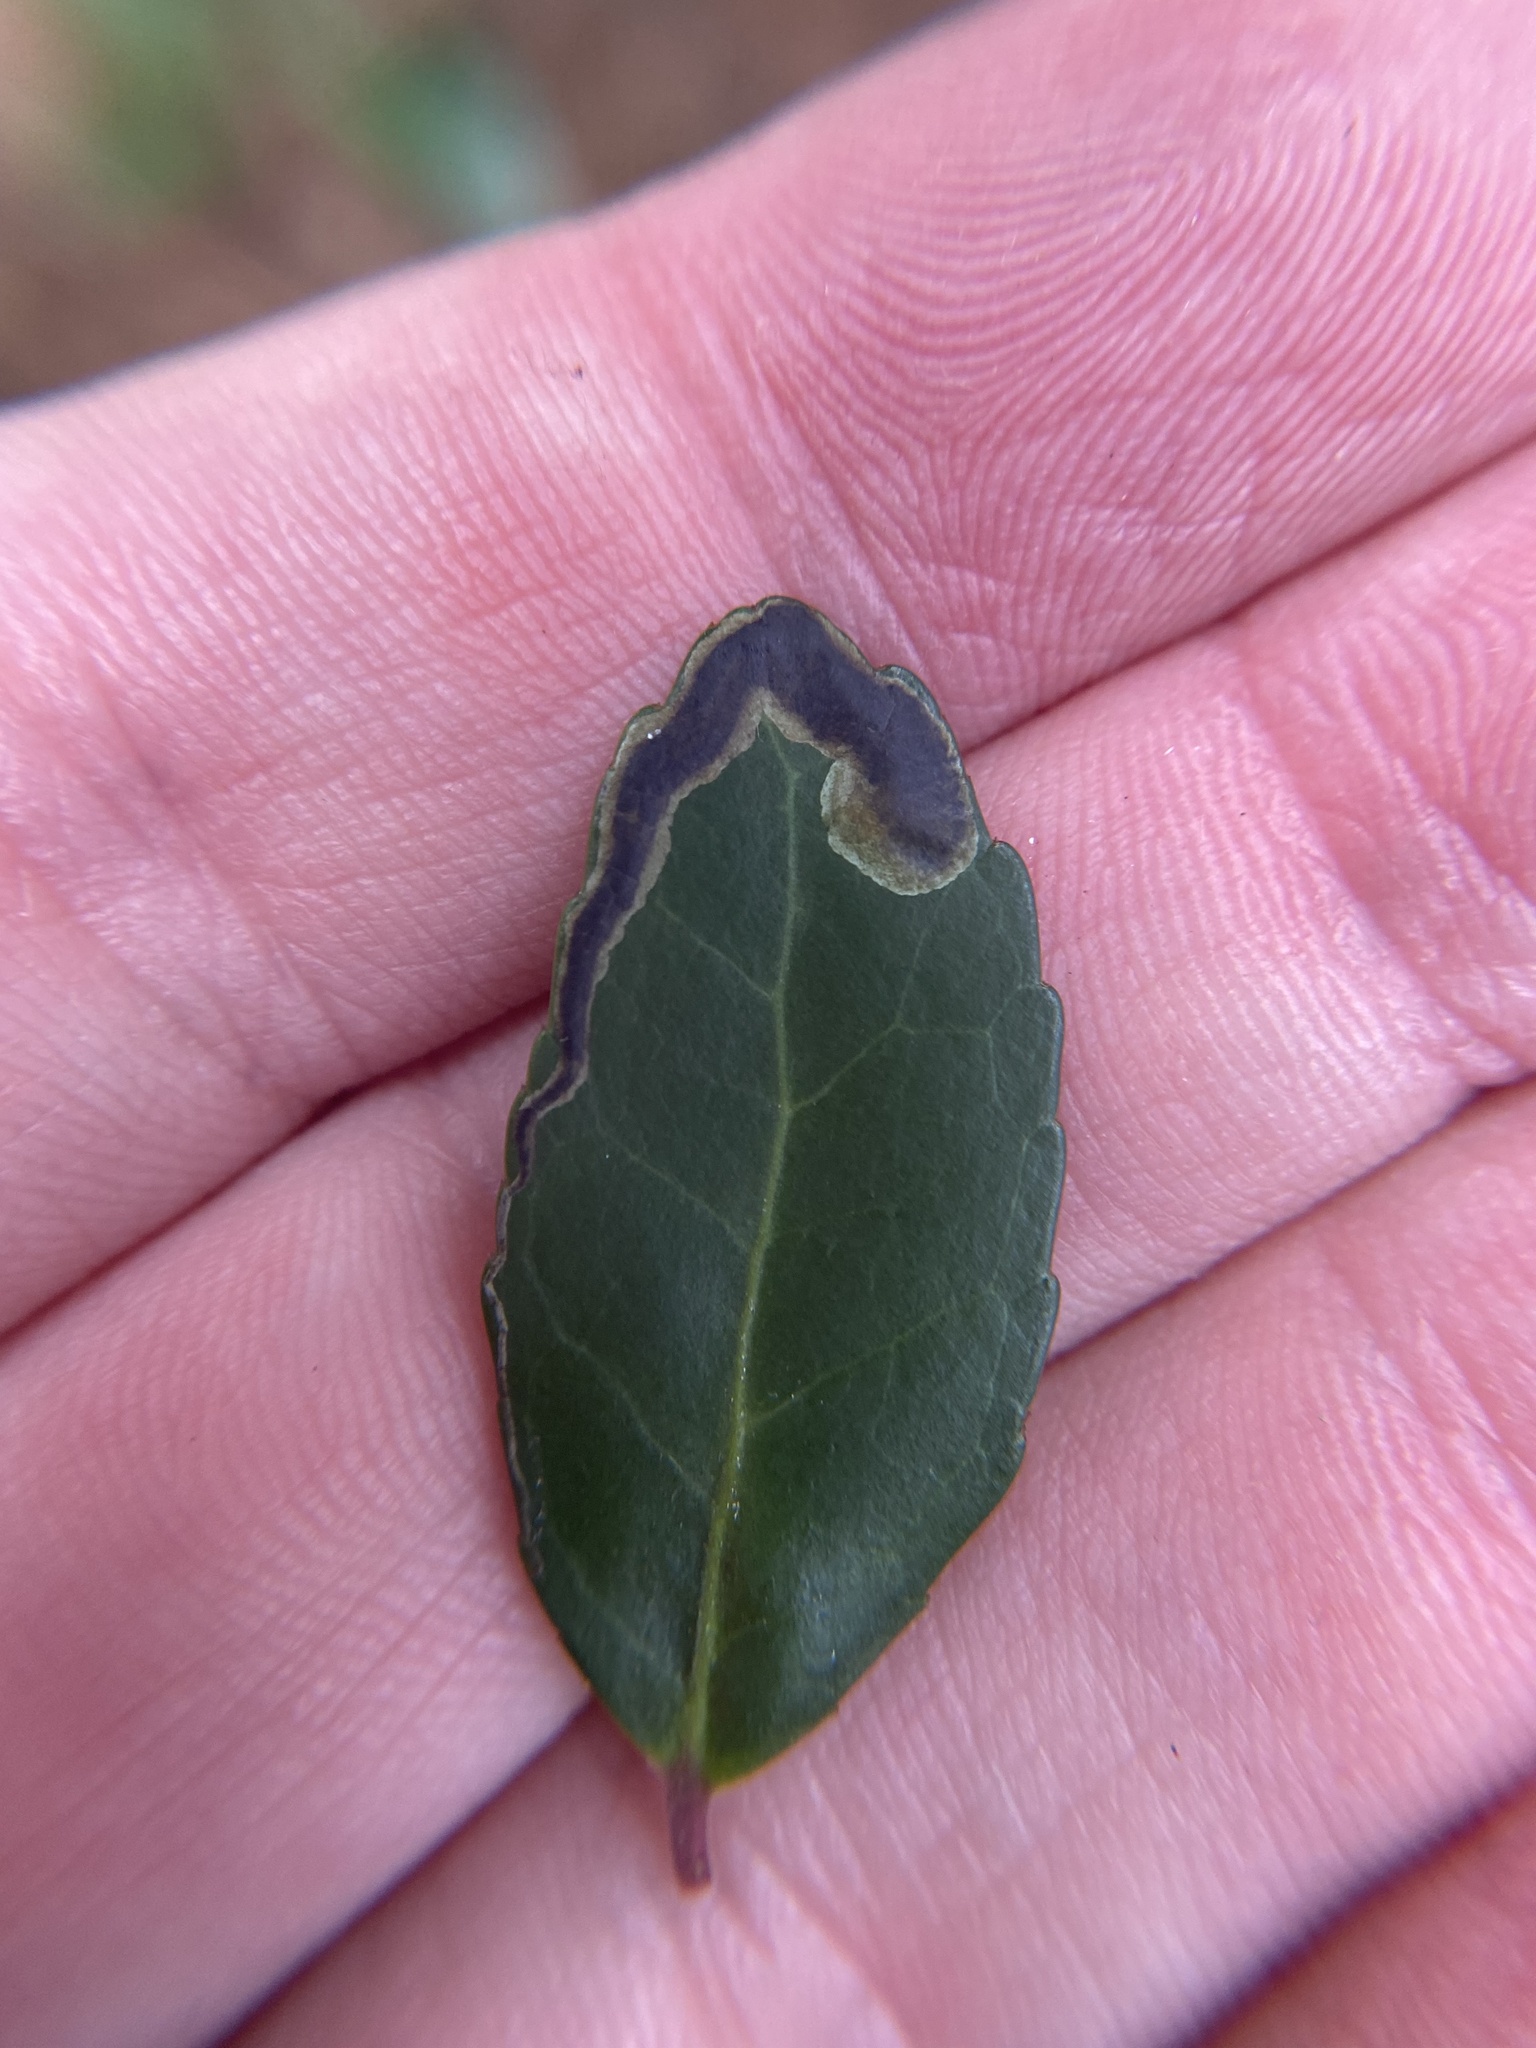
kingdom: Animalia
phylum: Arthropoda
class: Insecta
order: Diptera
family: Agromyzidae
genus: Phytomyza
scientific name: Phytomyza vomitoriae
